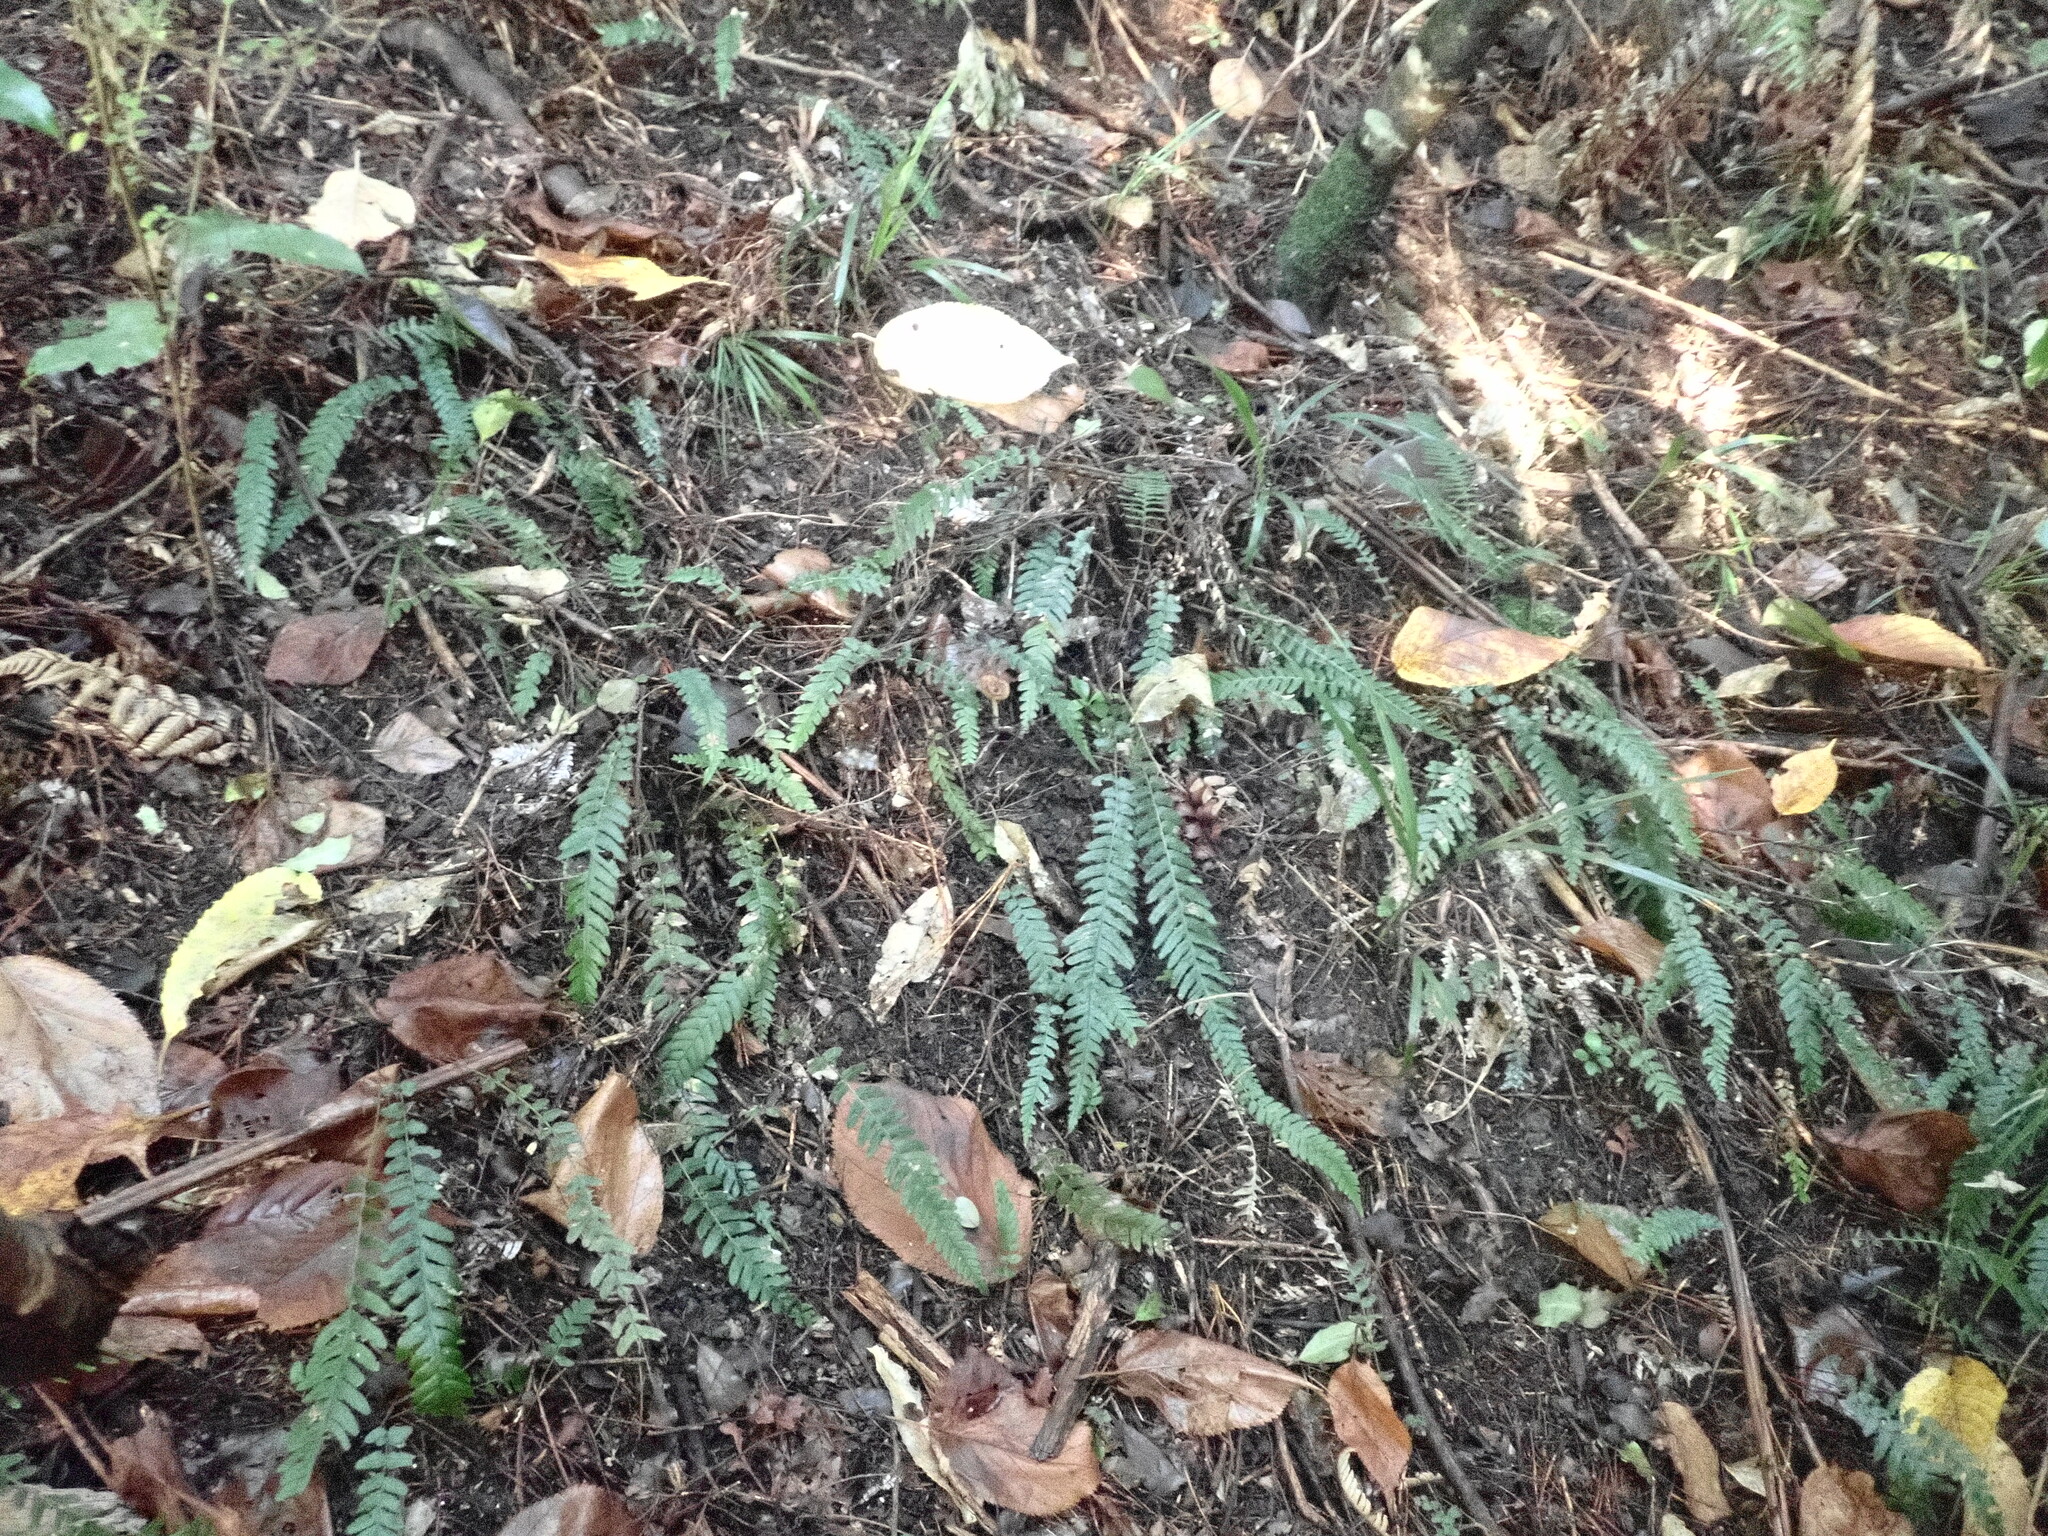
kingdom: Plantae
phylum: Tracheophyta
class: Polypodiopsida
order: Polypodiales
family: Blechnaceae
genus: Doodia
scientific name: Doodia australis
